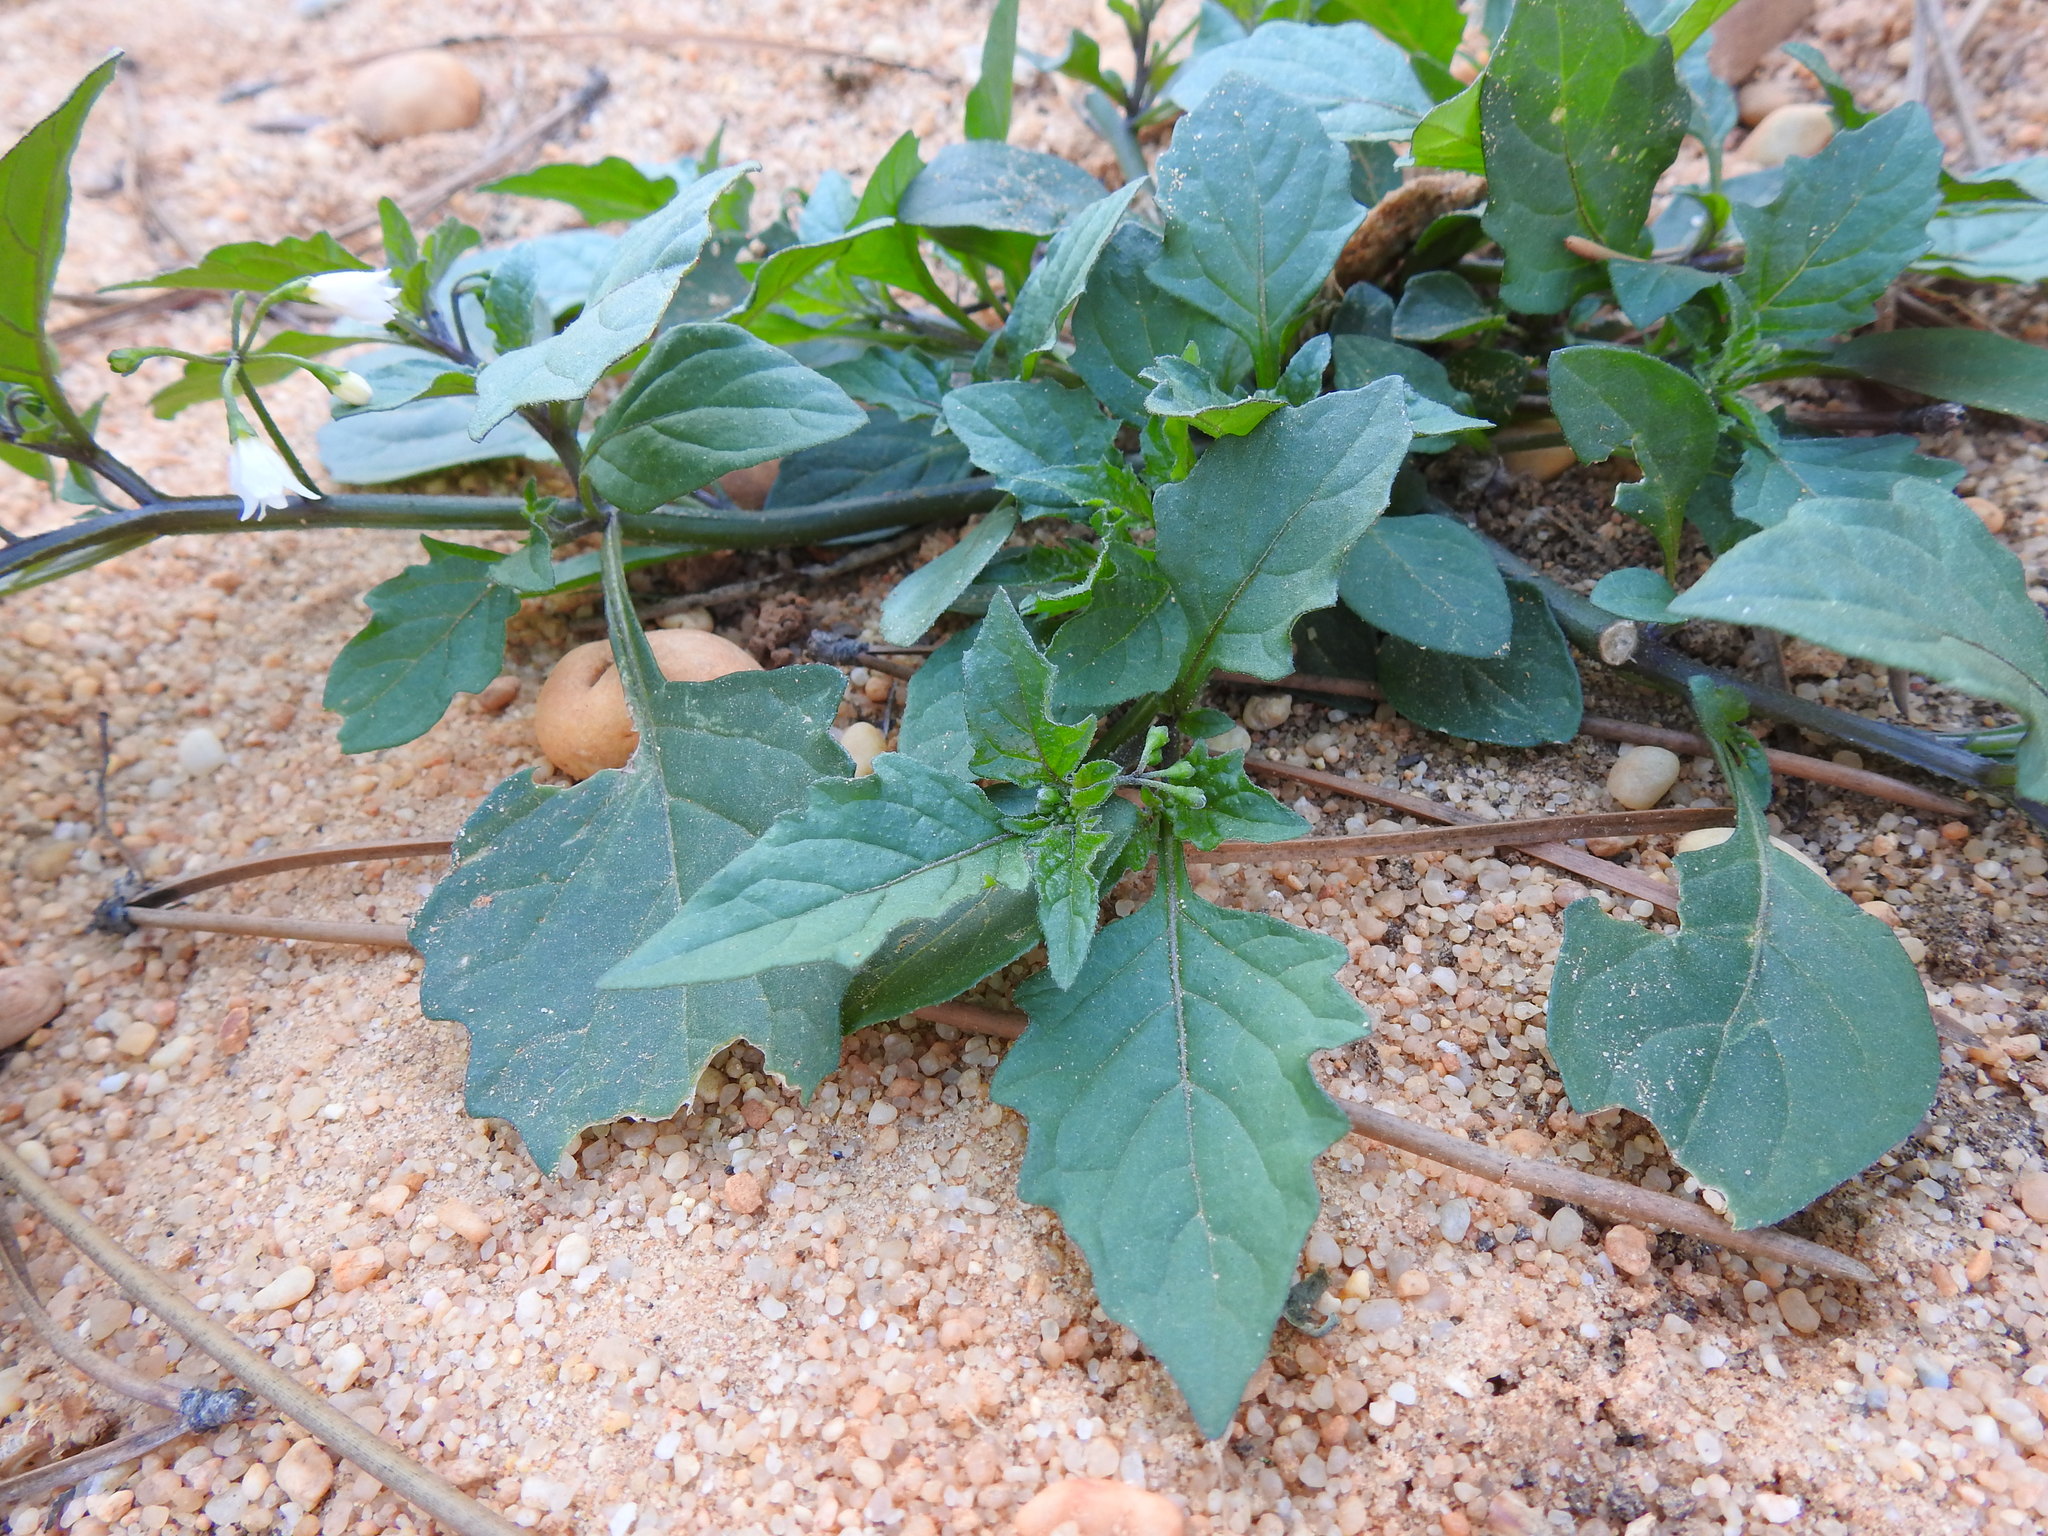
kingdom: Plantae
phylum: Tracheophyta
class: Magnoliopsida
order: Solanales
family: Solanaceae
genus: Solanum
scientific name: Solanum nigrum
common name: Black nightshade
